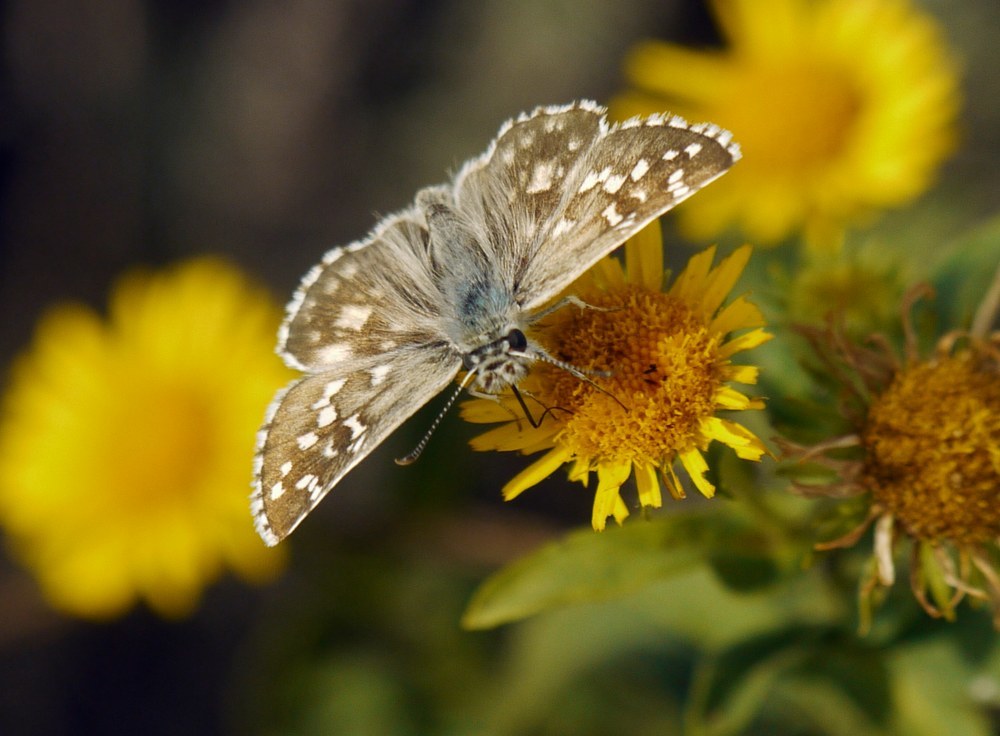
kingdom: Animalia
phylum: Arthropoda
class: Insecta
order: Lepidoptera
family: Hesperiidae
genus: Pyrgus
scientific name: Pyrgus armoricanus
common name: Oberthür's grizzled skipper
